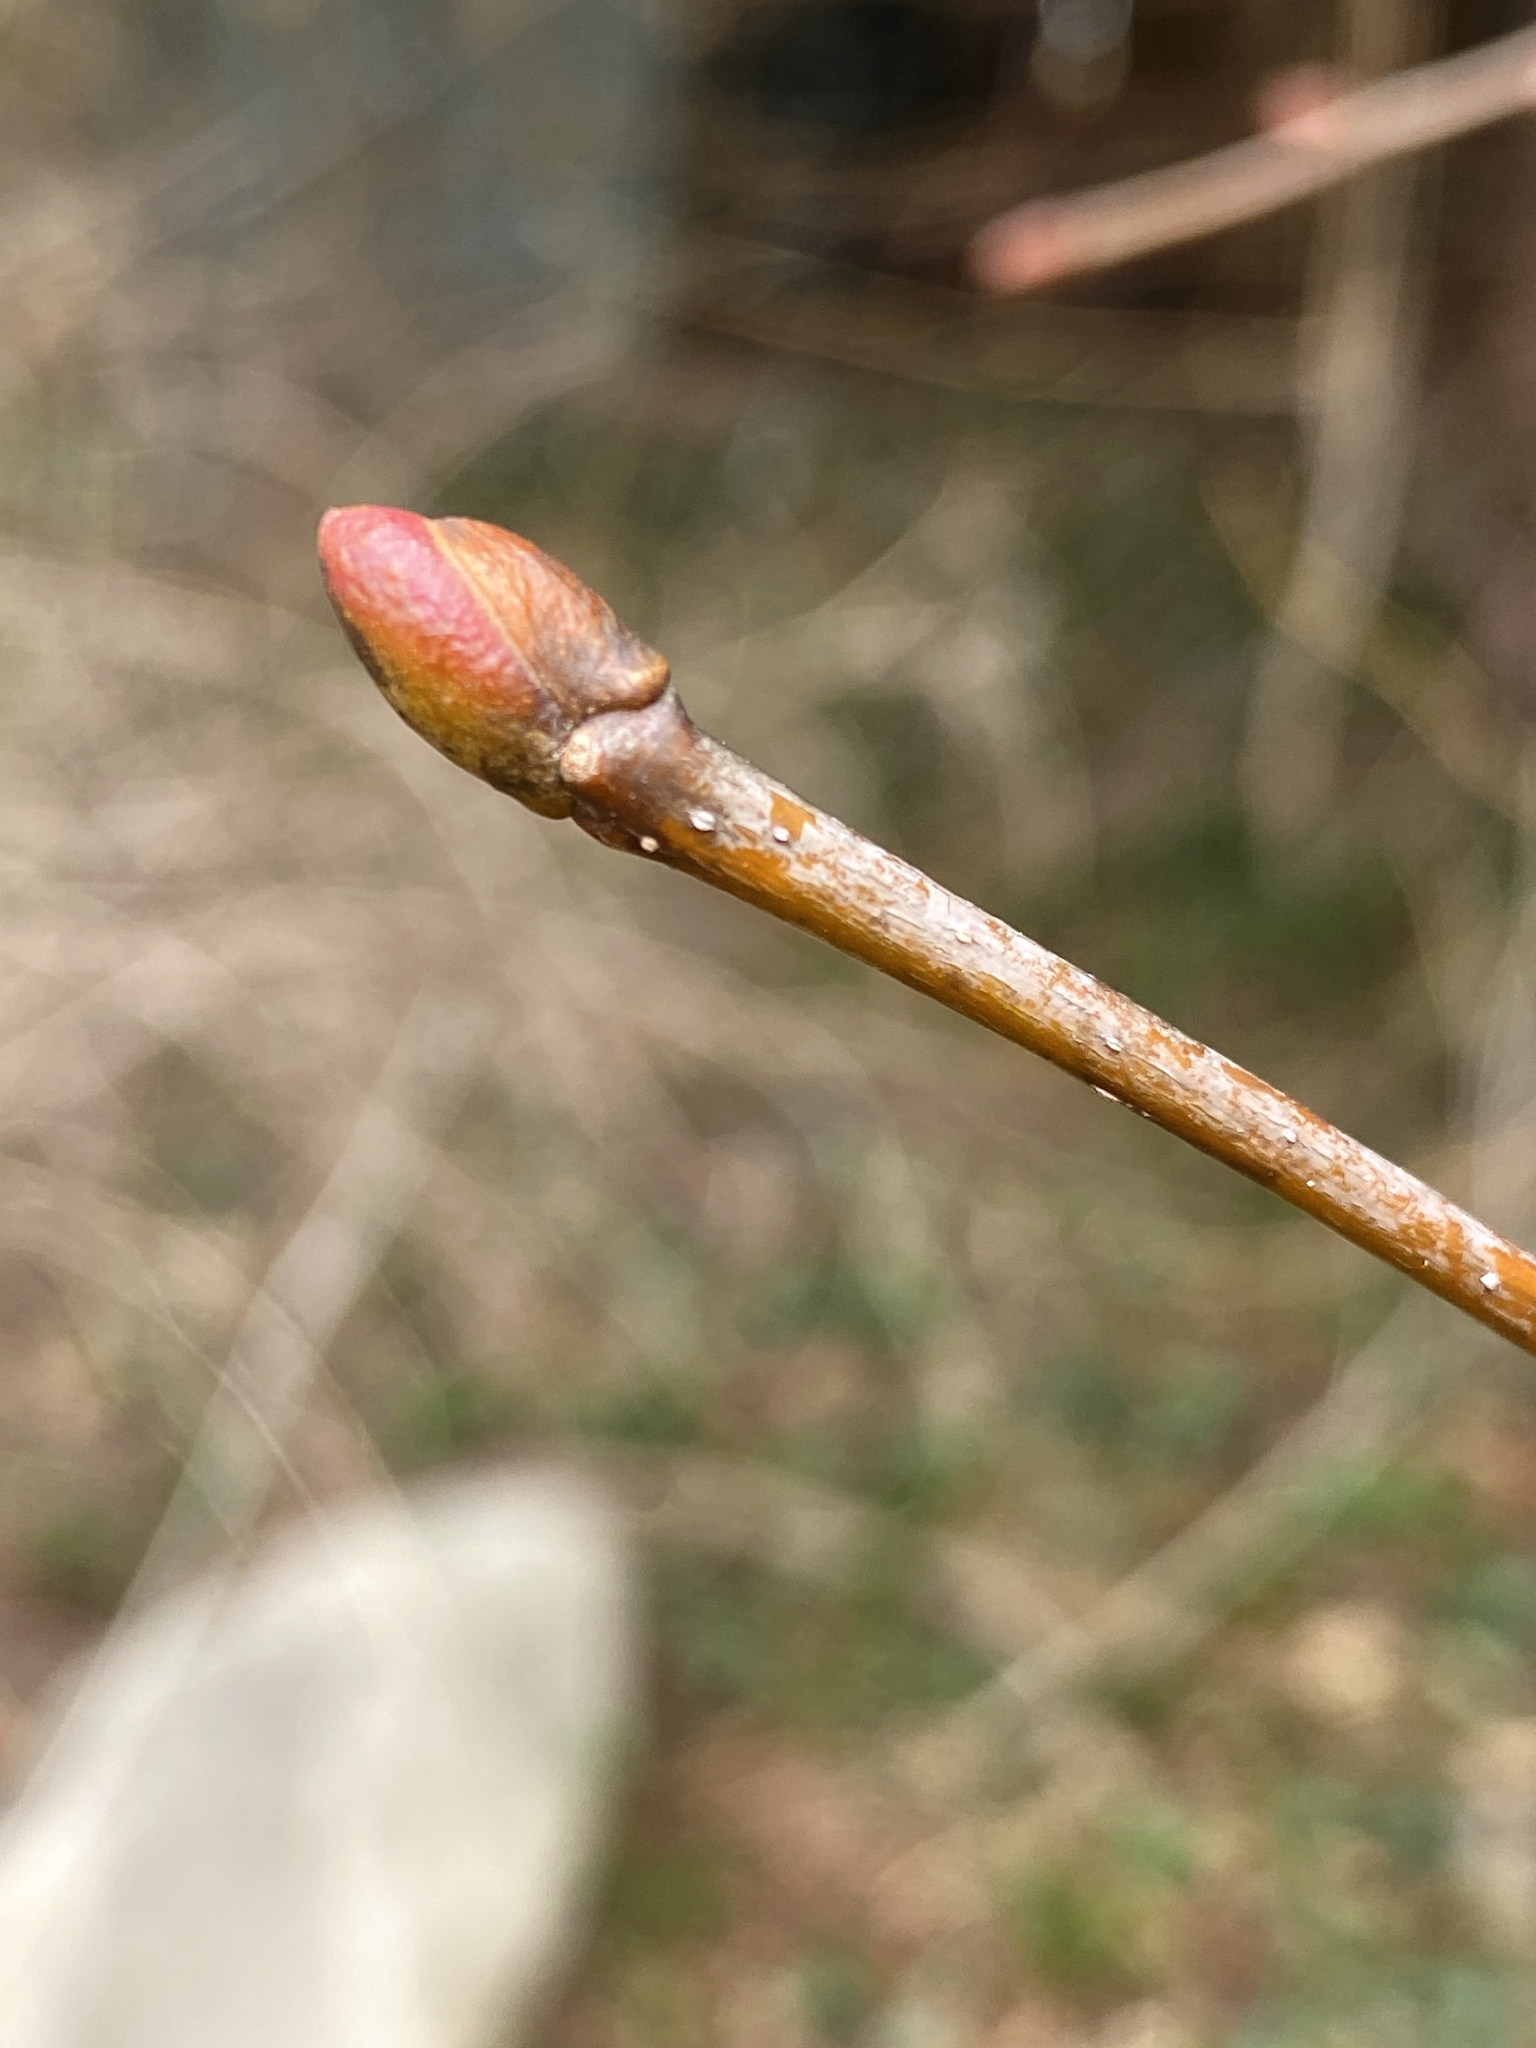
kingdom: Plantae
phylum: Tracheophyta
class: Magnoliopsida
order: Malvales
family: Malvaceae
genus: Tilia
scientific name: Tilia americana
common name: Basswood
